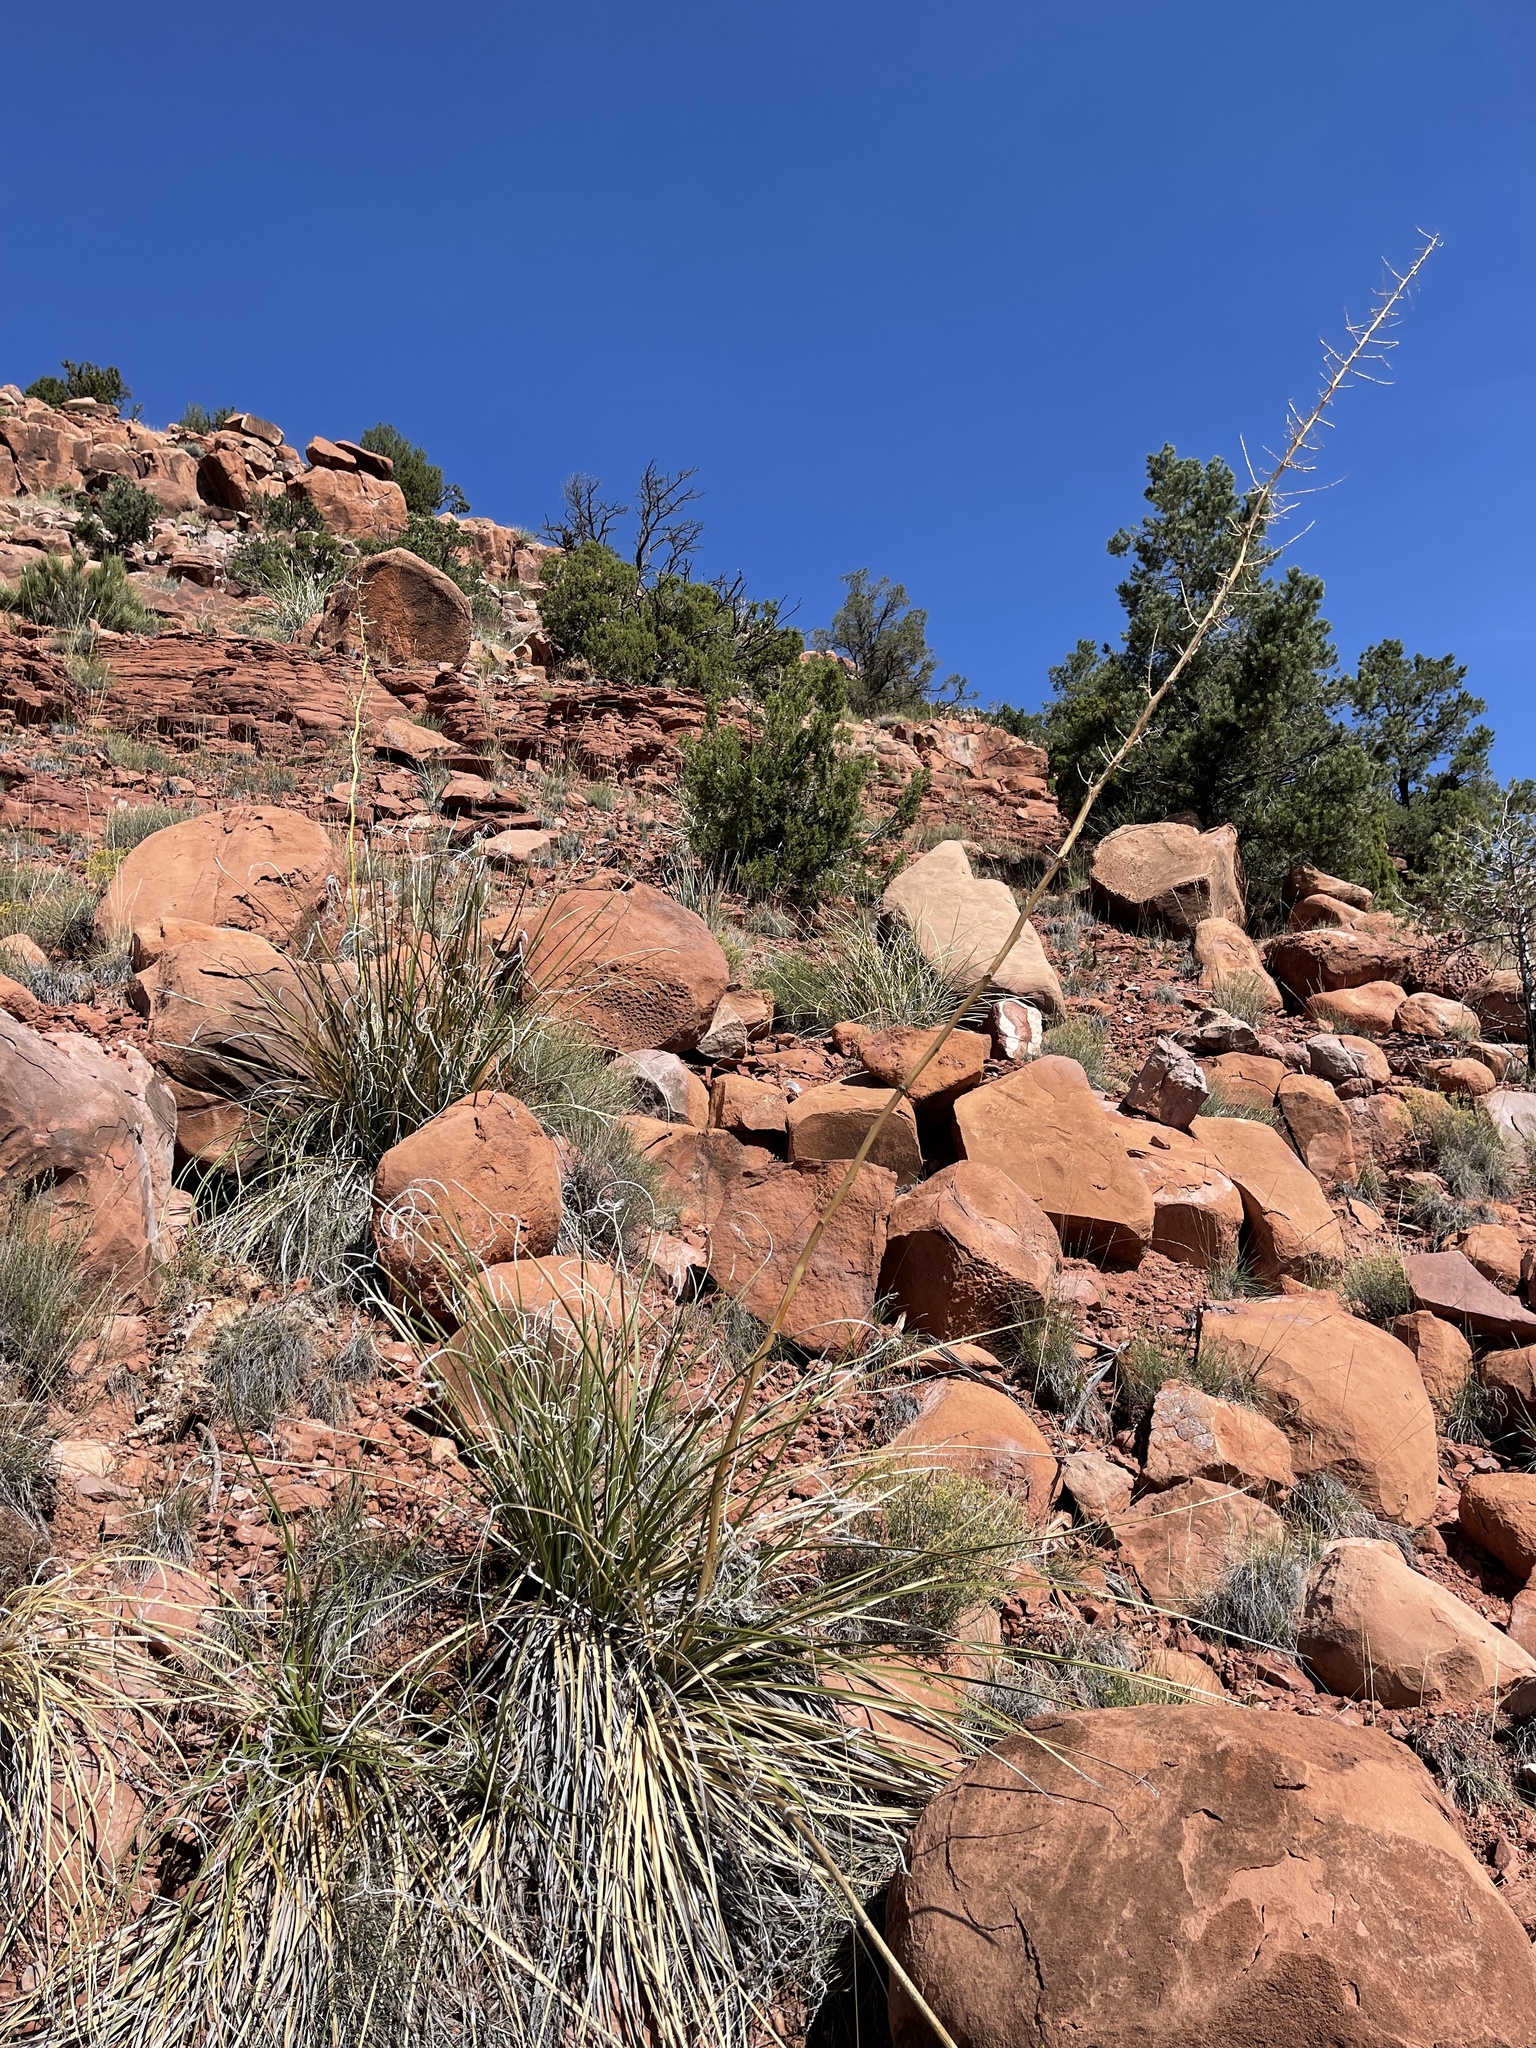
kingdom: Plantae
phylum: Tracheophyta
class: Liliopsida
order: Asparagales
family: Asparagaceae
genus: Nolina
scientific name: Nolina microcarpa
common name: Bear-grass
